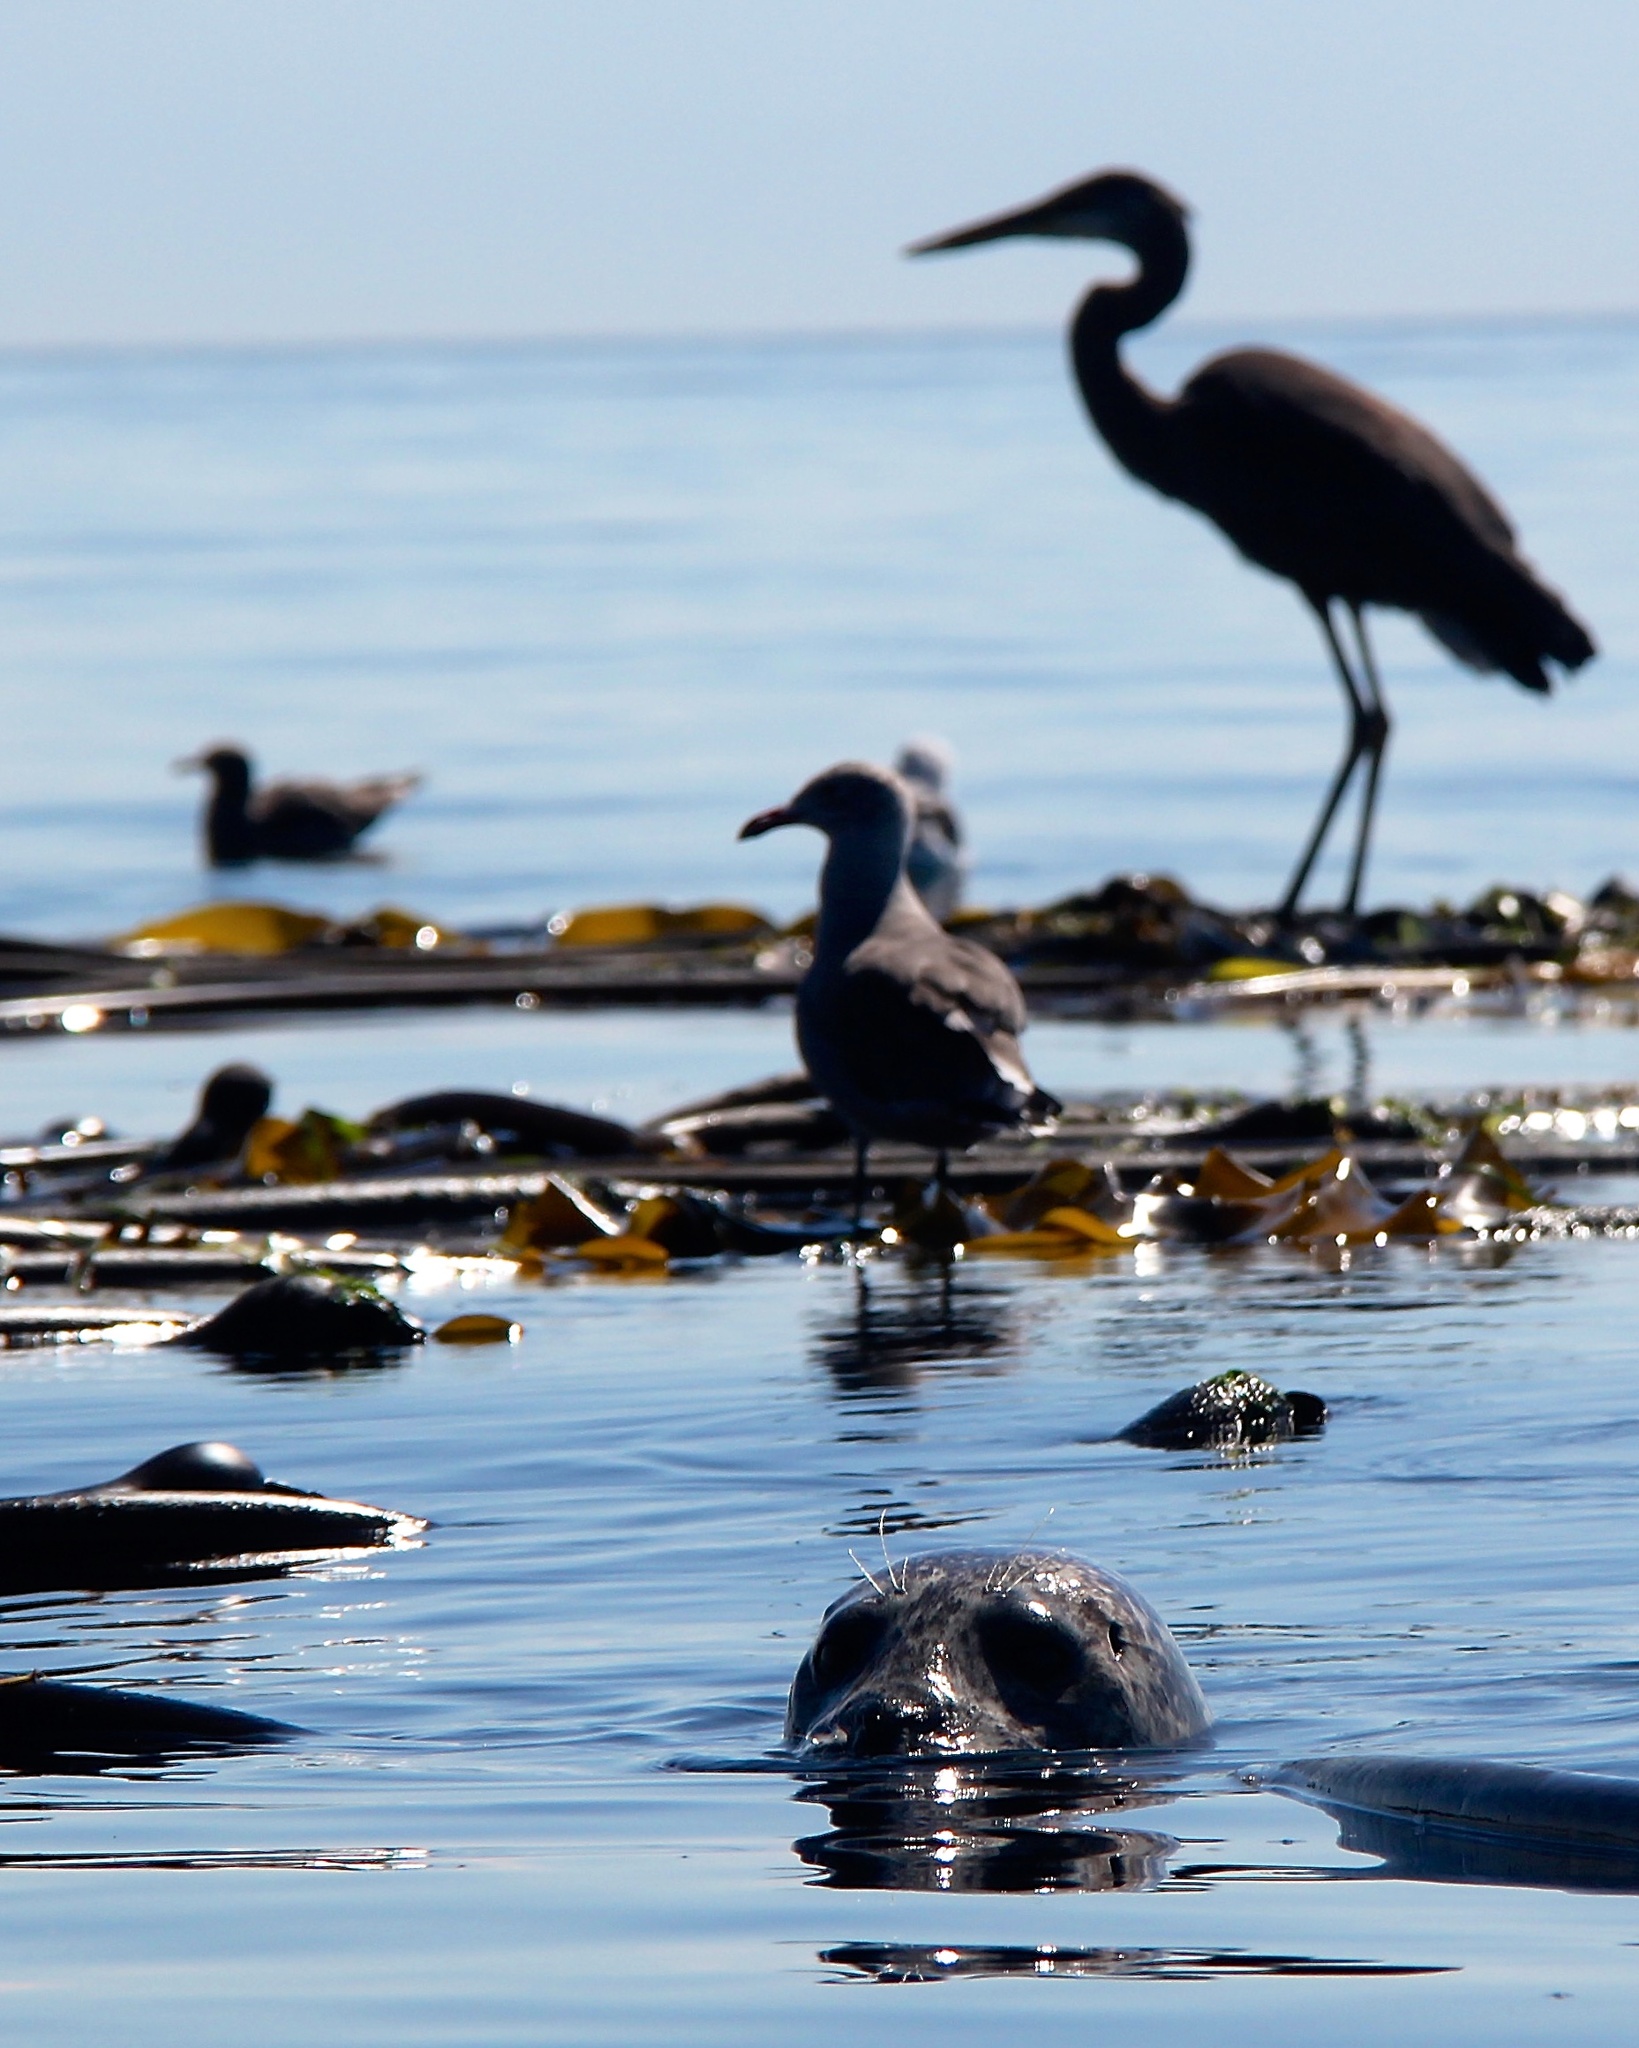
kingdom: Animalia
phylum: Chordata
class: Mammalia
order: Carnivora
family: Phocidae
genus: Phoca
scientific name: Phoca vitulina
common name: Harbor seal
